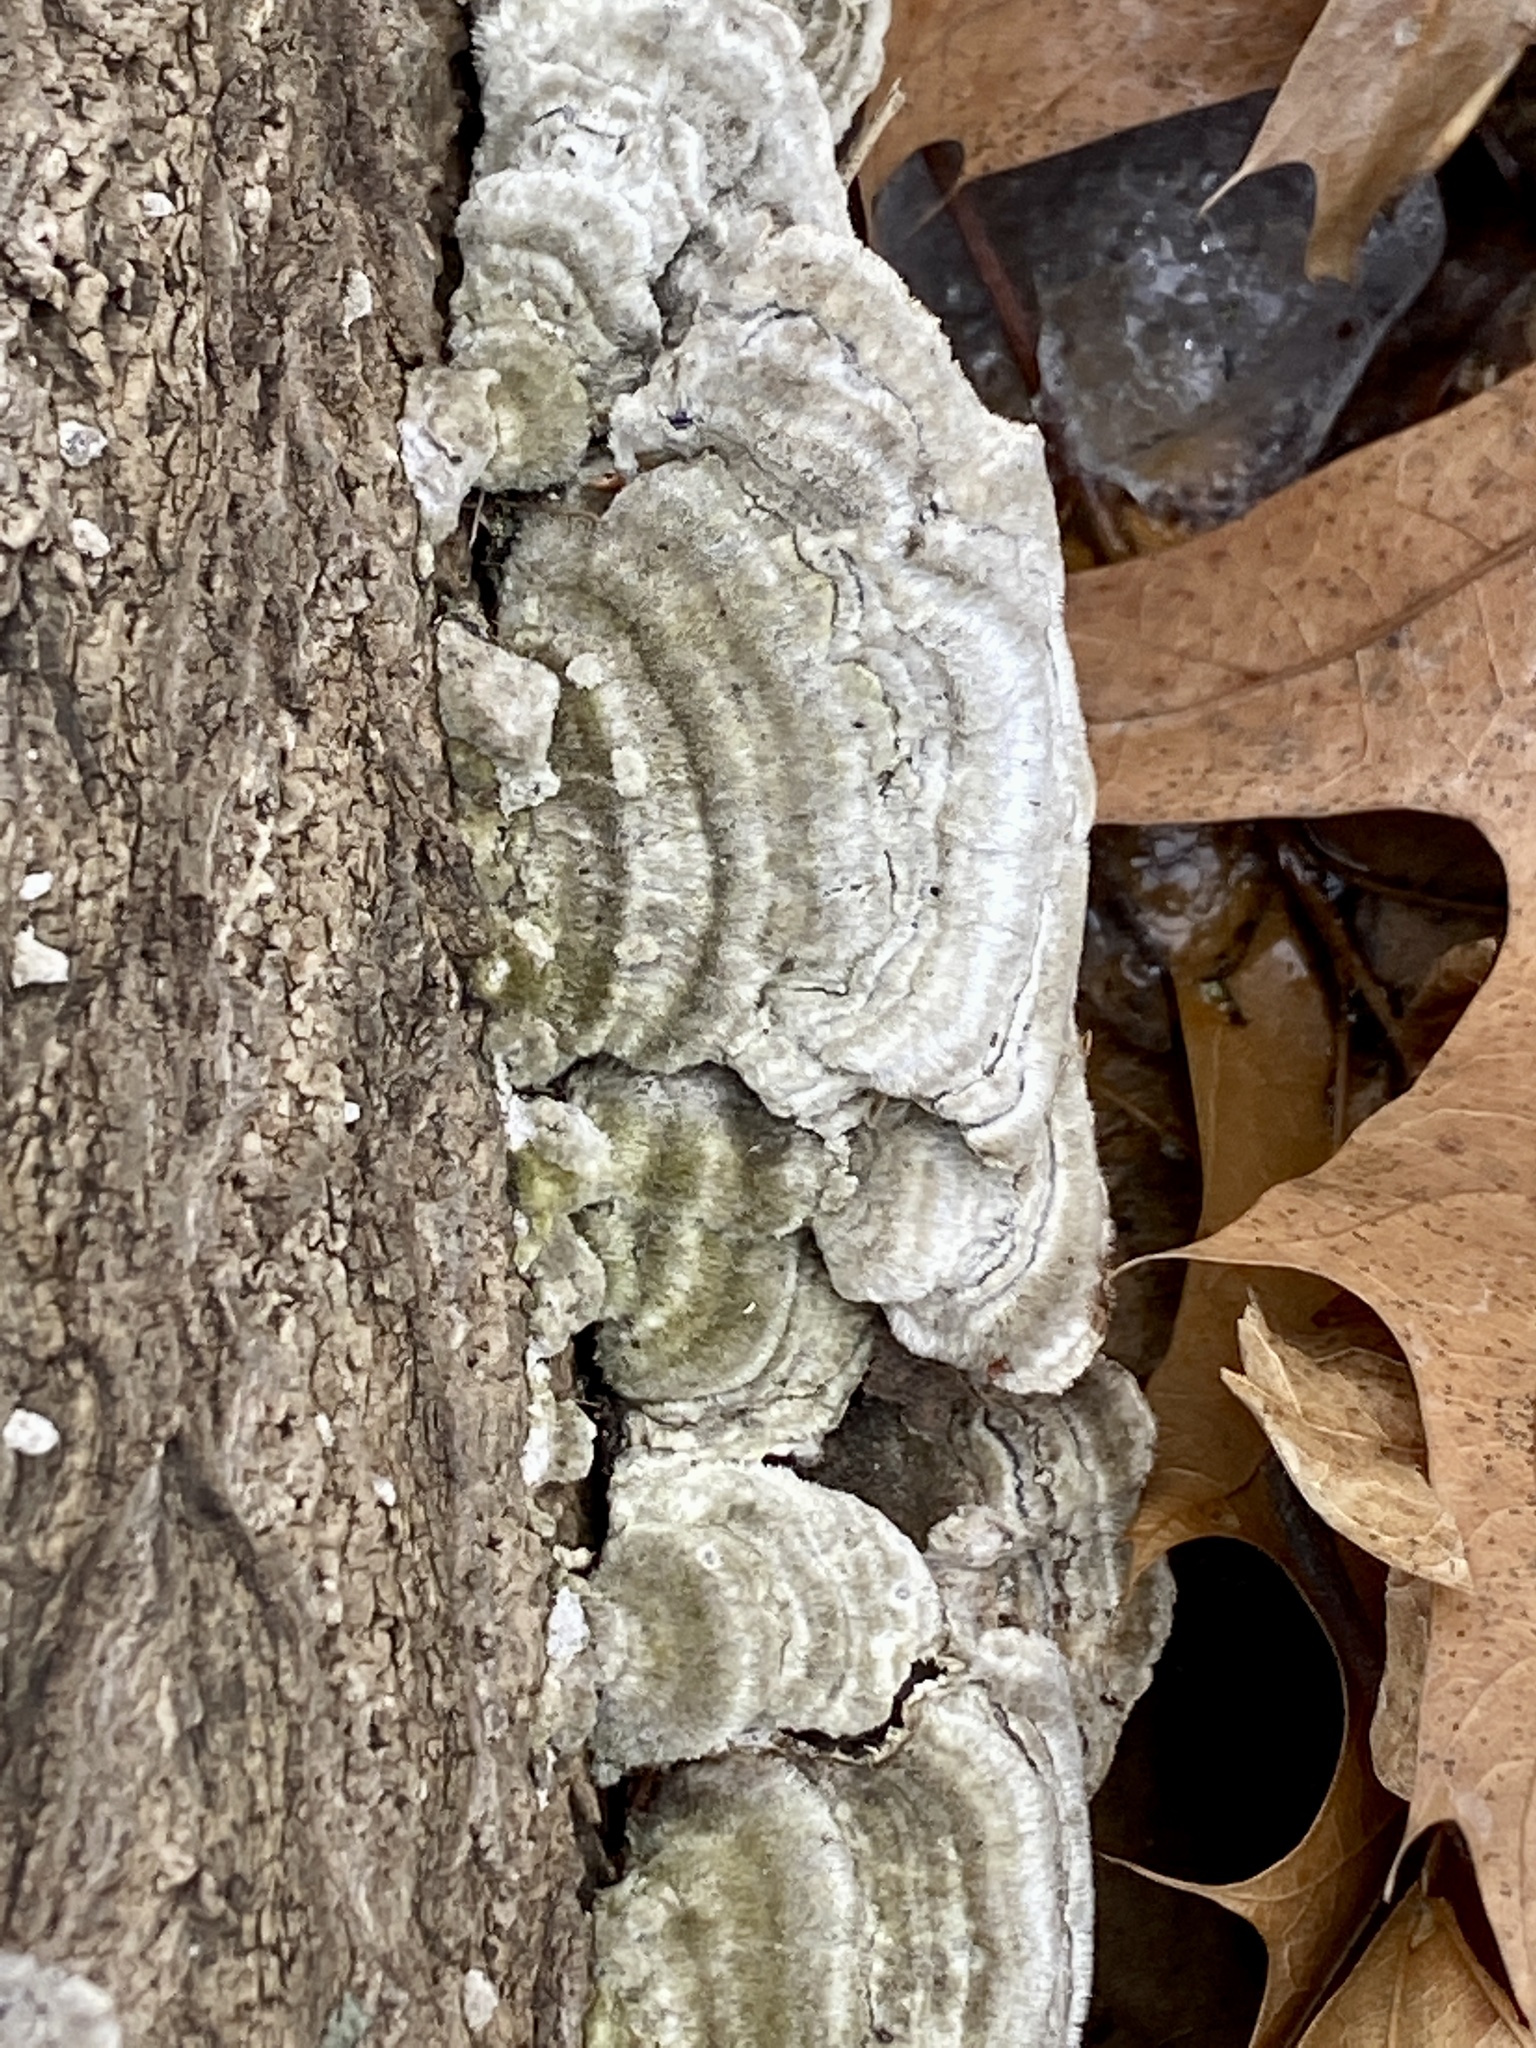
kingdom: Fungi
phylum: Basidiomycota
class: Agaricomycetes
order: Polyporales
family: Cerrenaceae
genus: Cerrena
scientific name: Cerrena unicolor
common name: Mossy maze polypore
